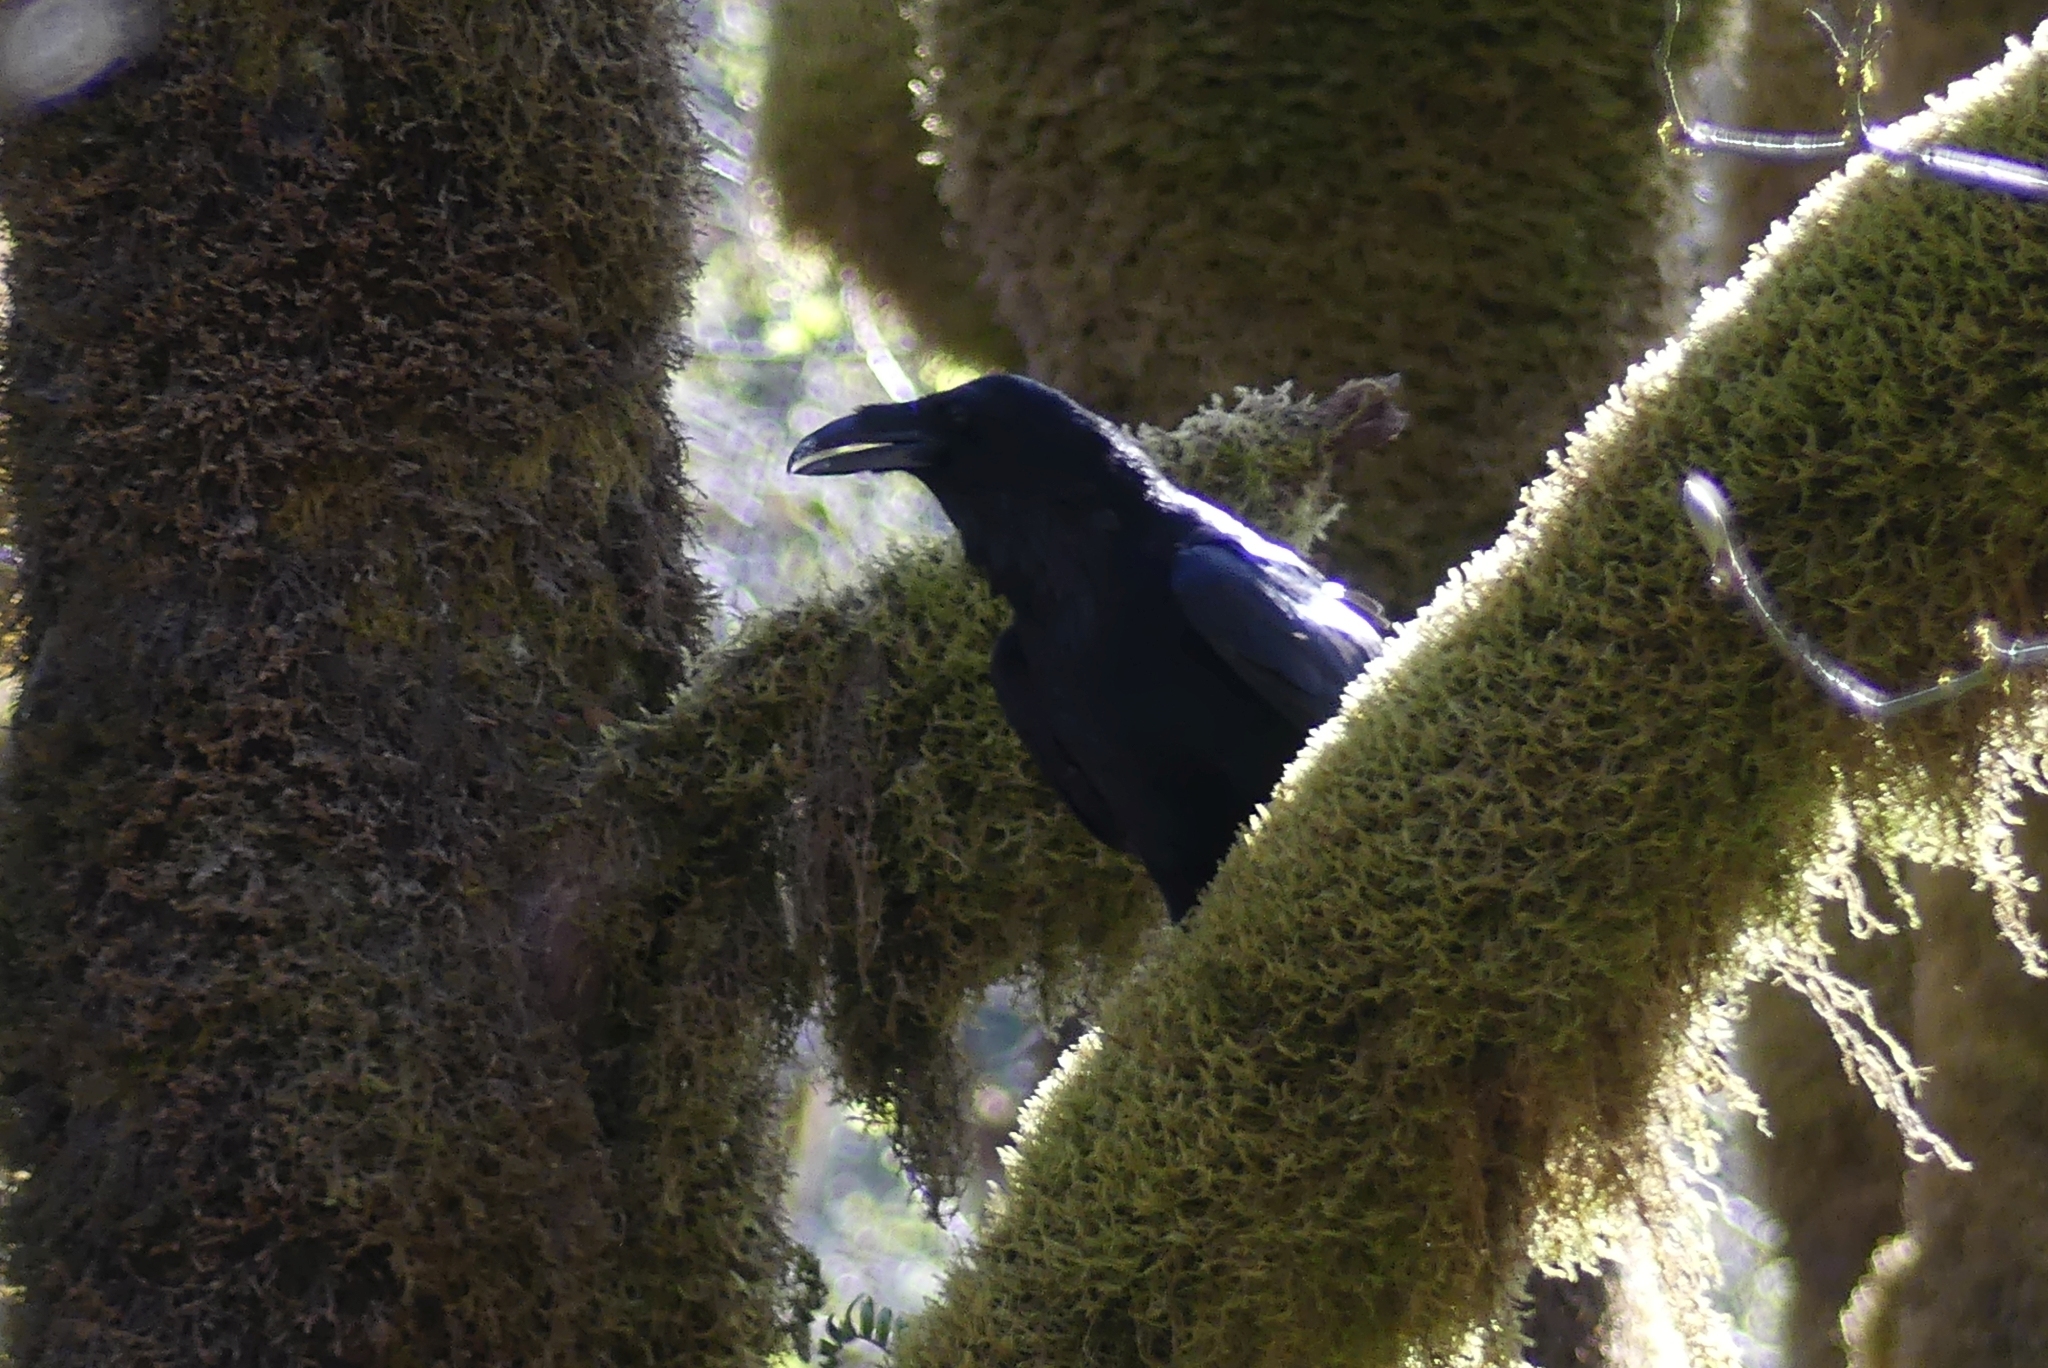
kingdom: Animalia
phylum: Chordata
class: Aves
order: Passeriformes
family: Corvidae
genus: Corvus
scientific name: Corvus corax
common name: Common raven
